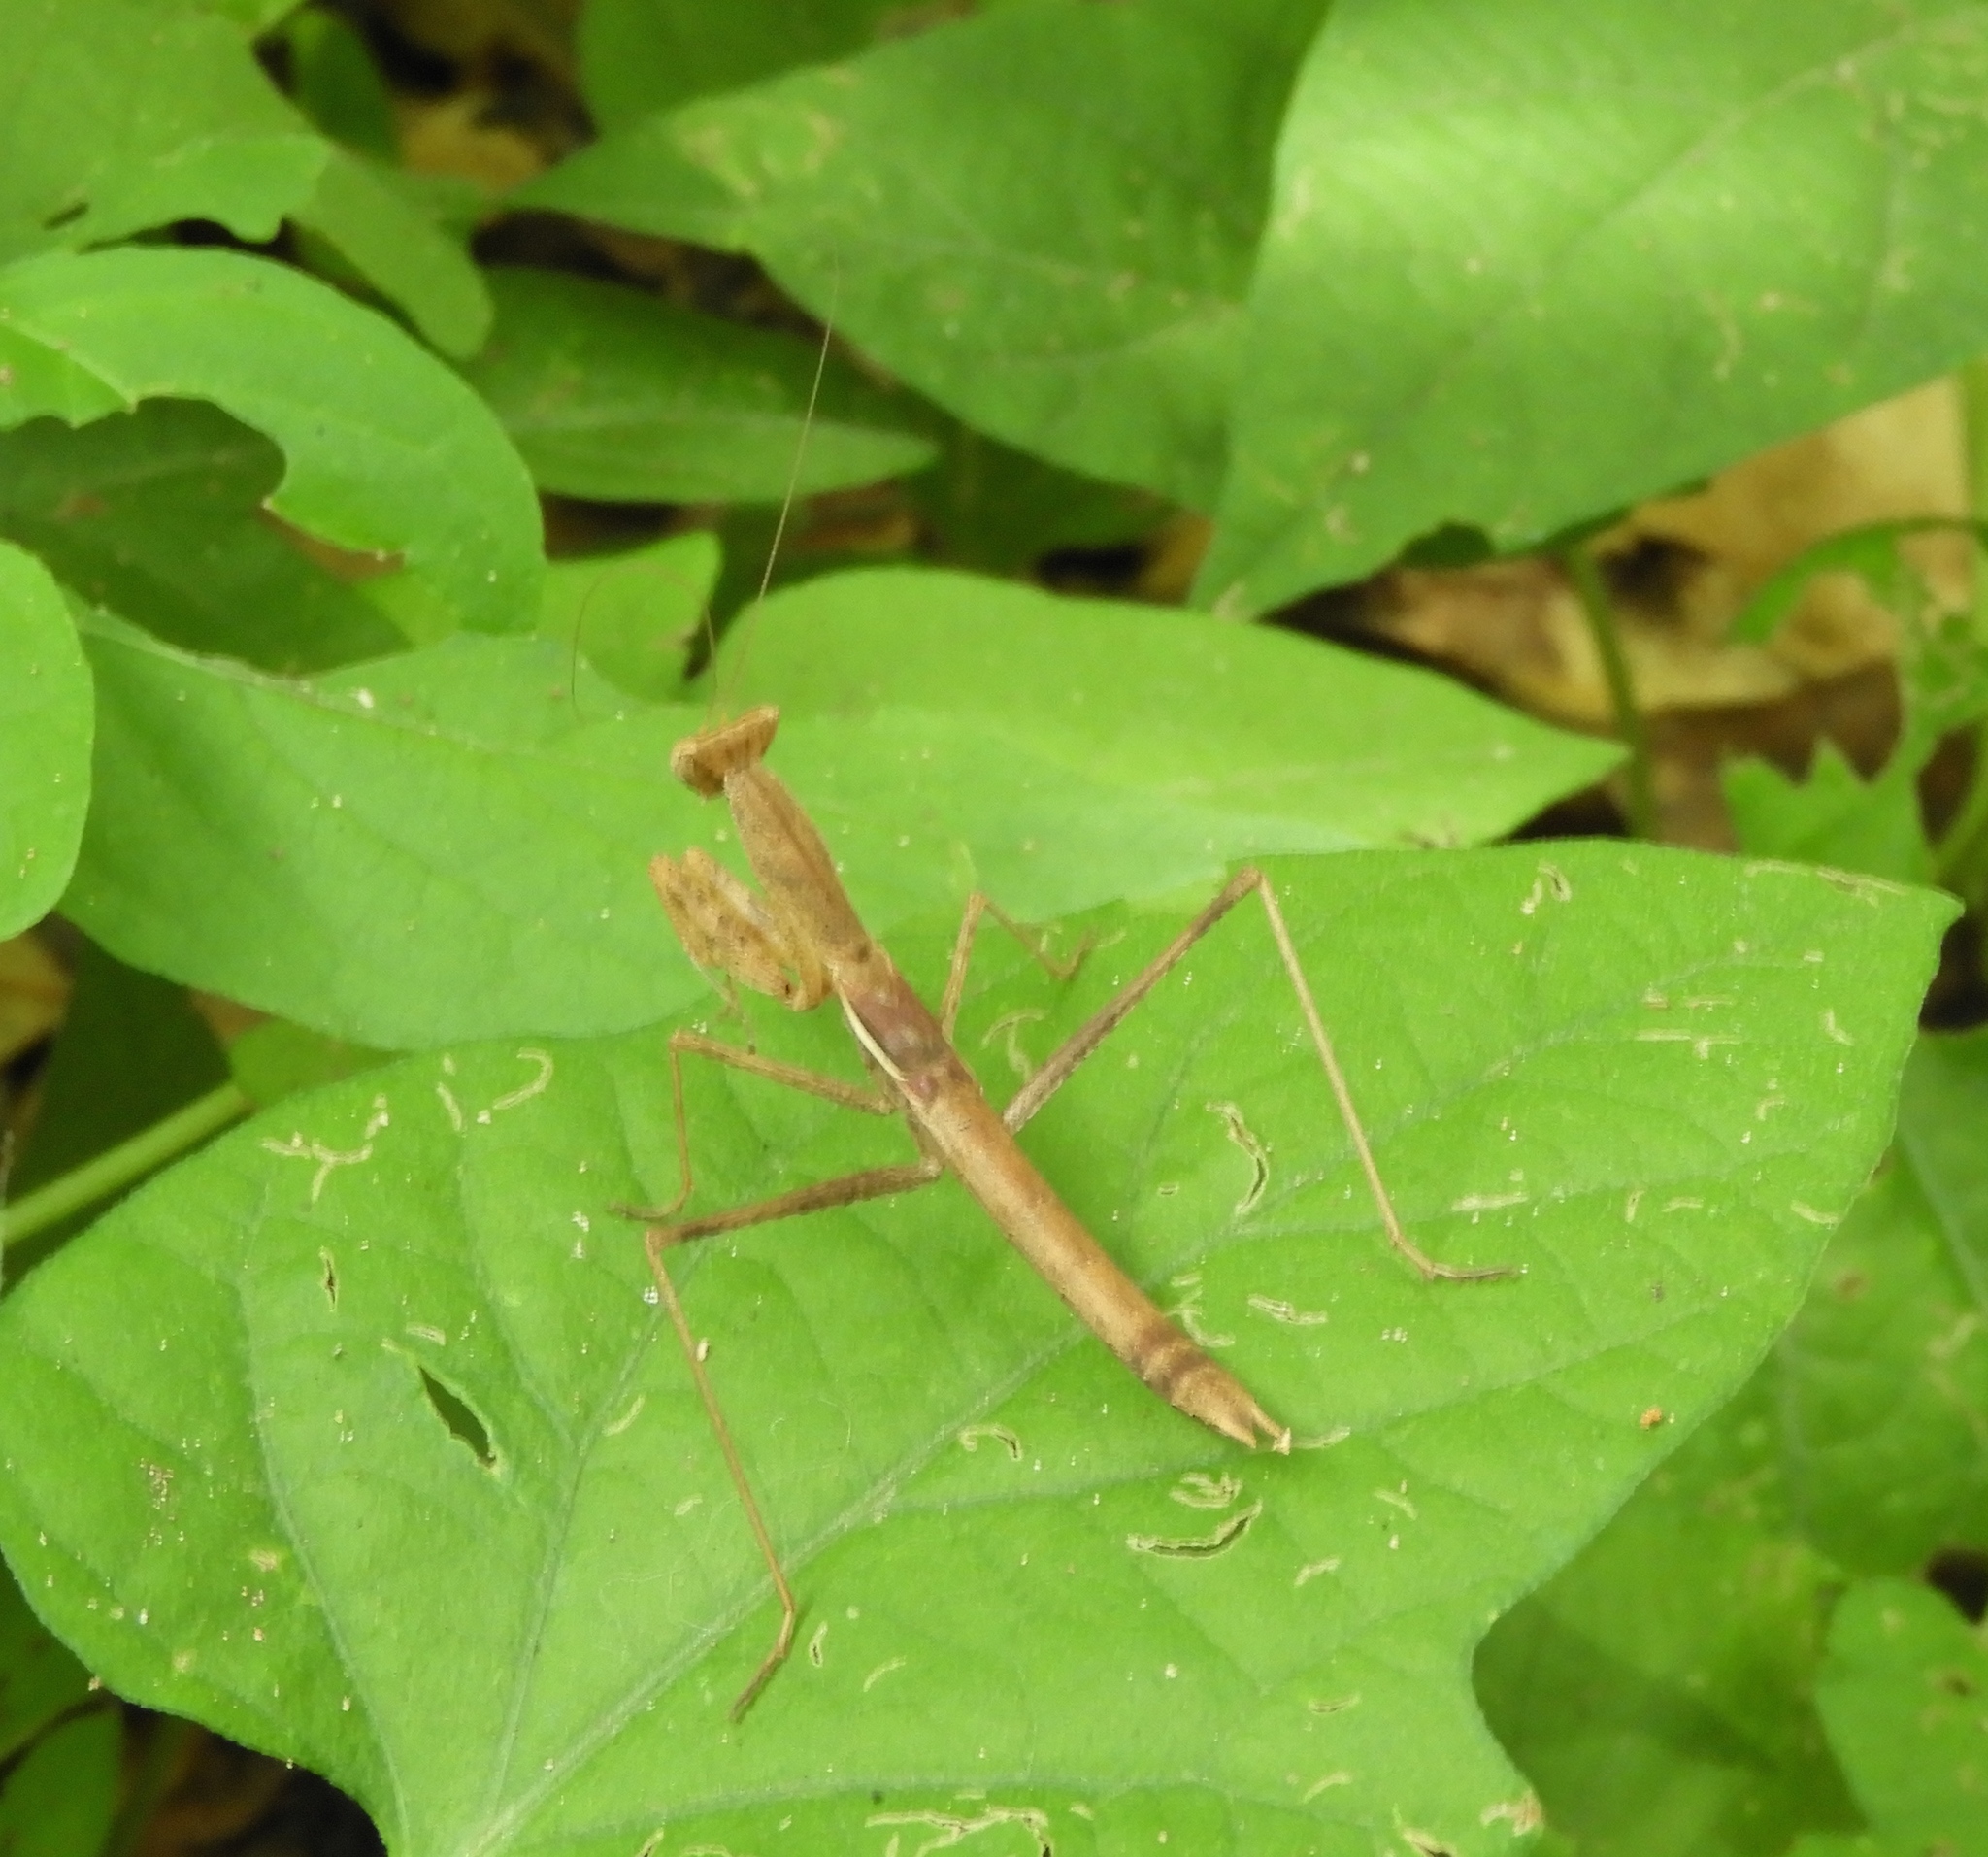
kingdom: Animalia
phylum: Arthropoda
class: Insecta
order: Mantodea
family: Amelidae
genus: Yersinia
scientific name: Yersinia mexicana
